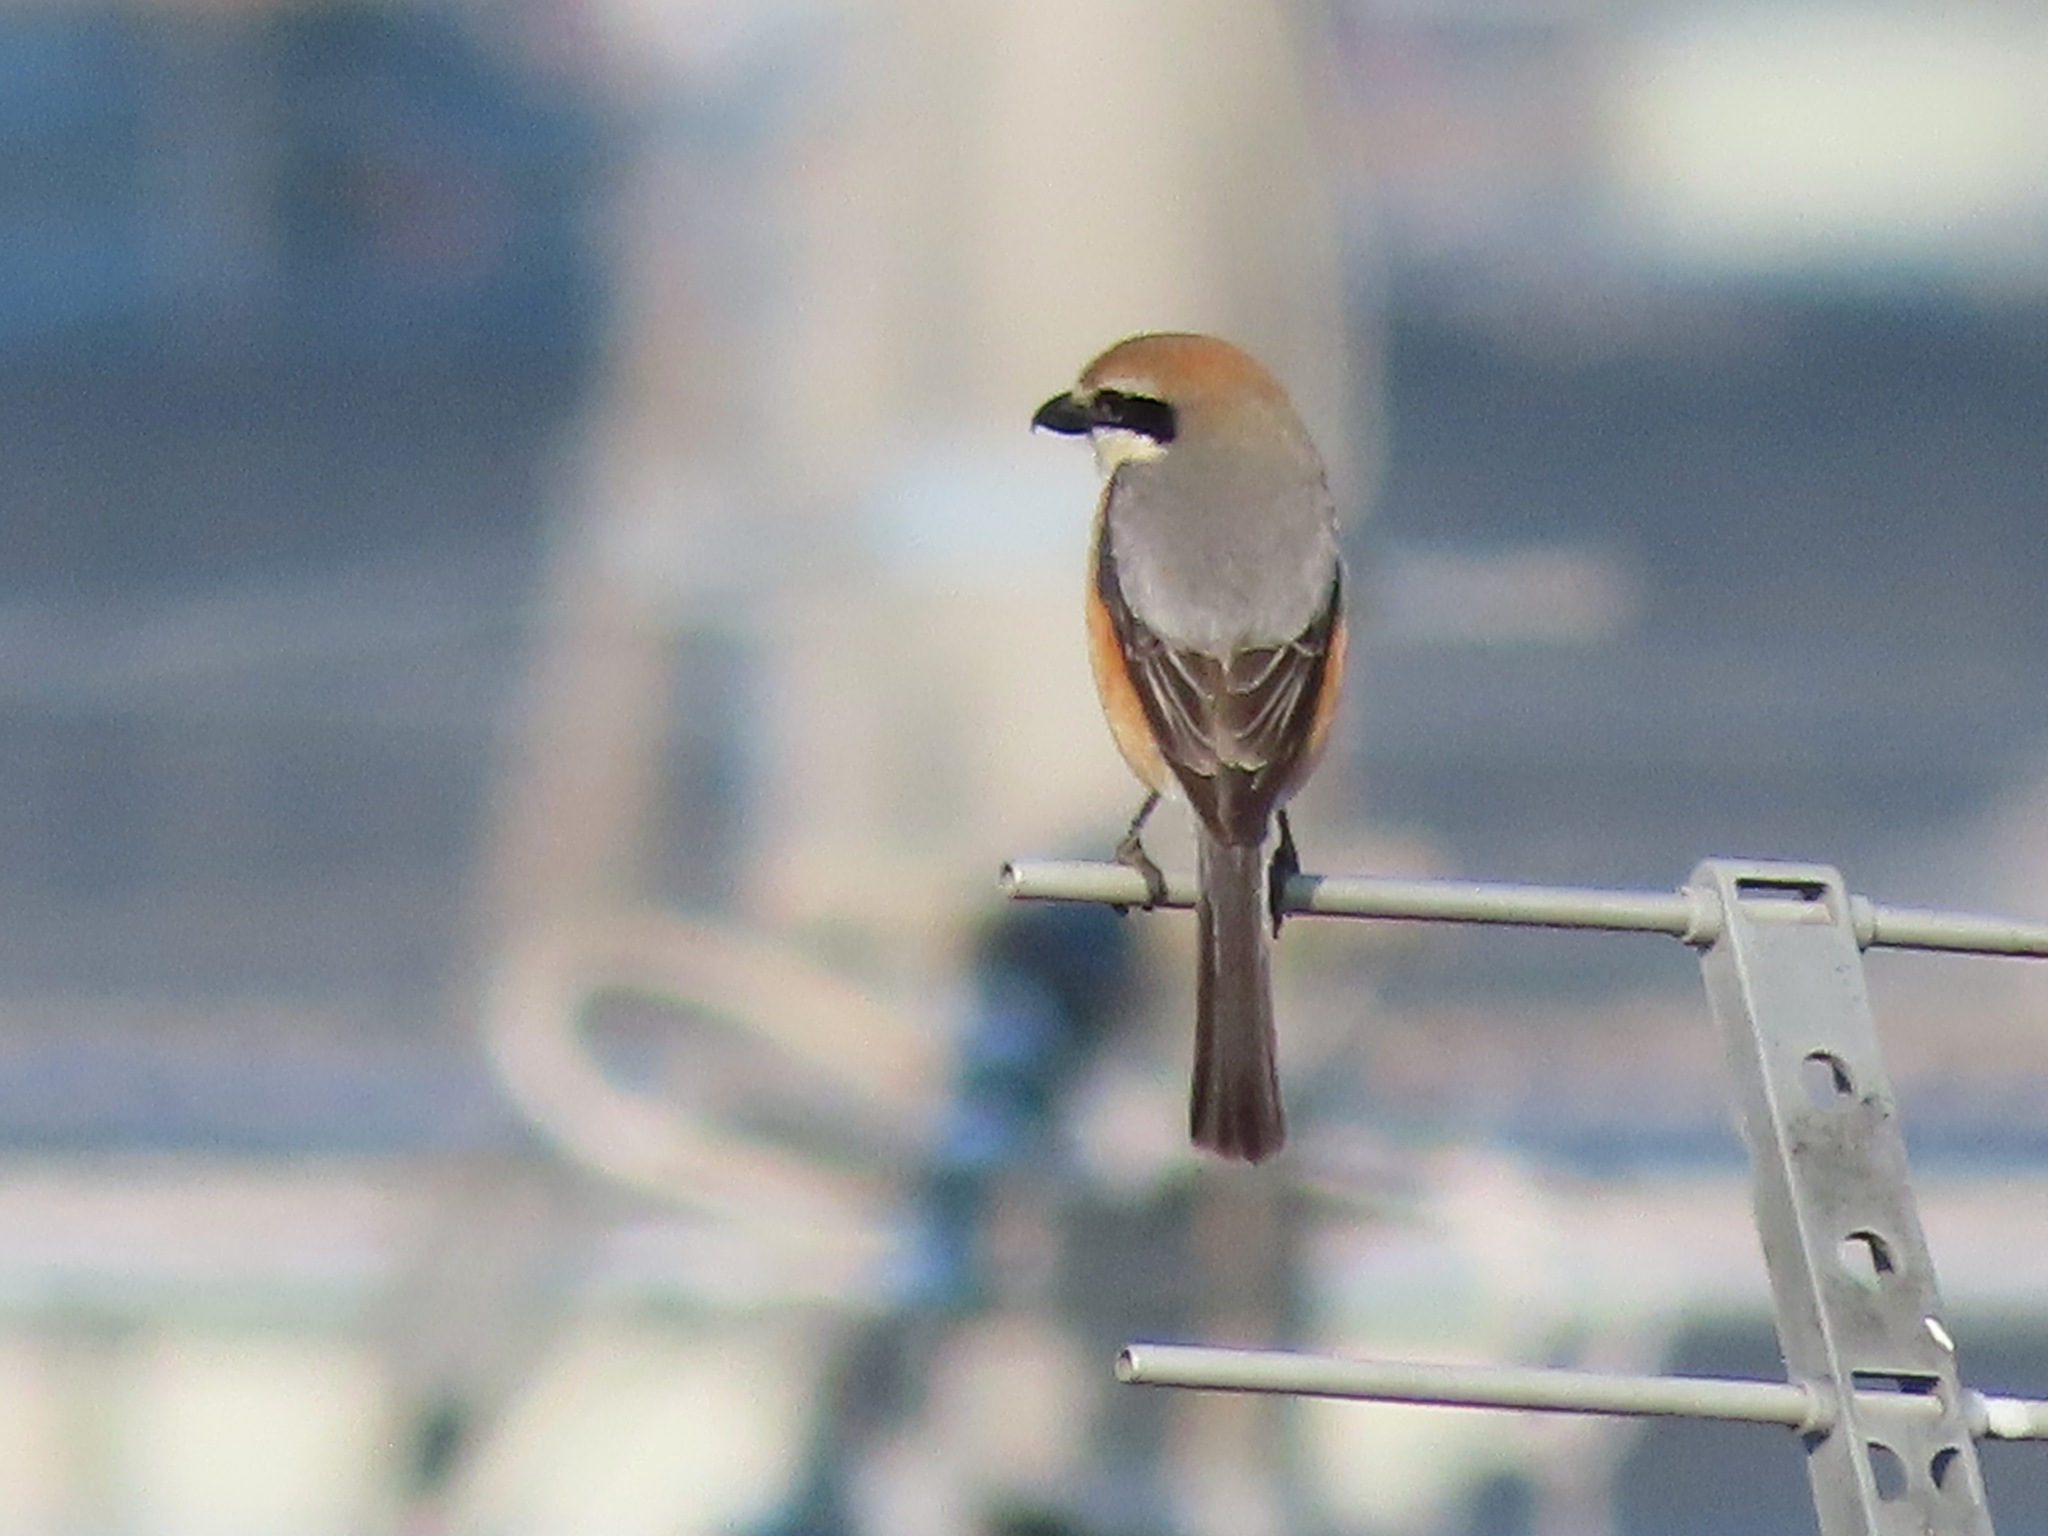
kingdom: Animalia
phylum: Chordata
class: Aves
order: Passeriformes
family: Laniidae
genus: Lanius
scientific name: Lanius bucephalus
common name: Bull-headed shrike
